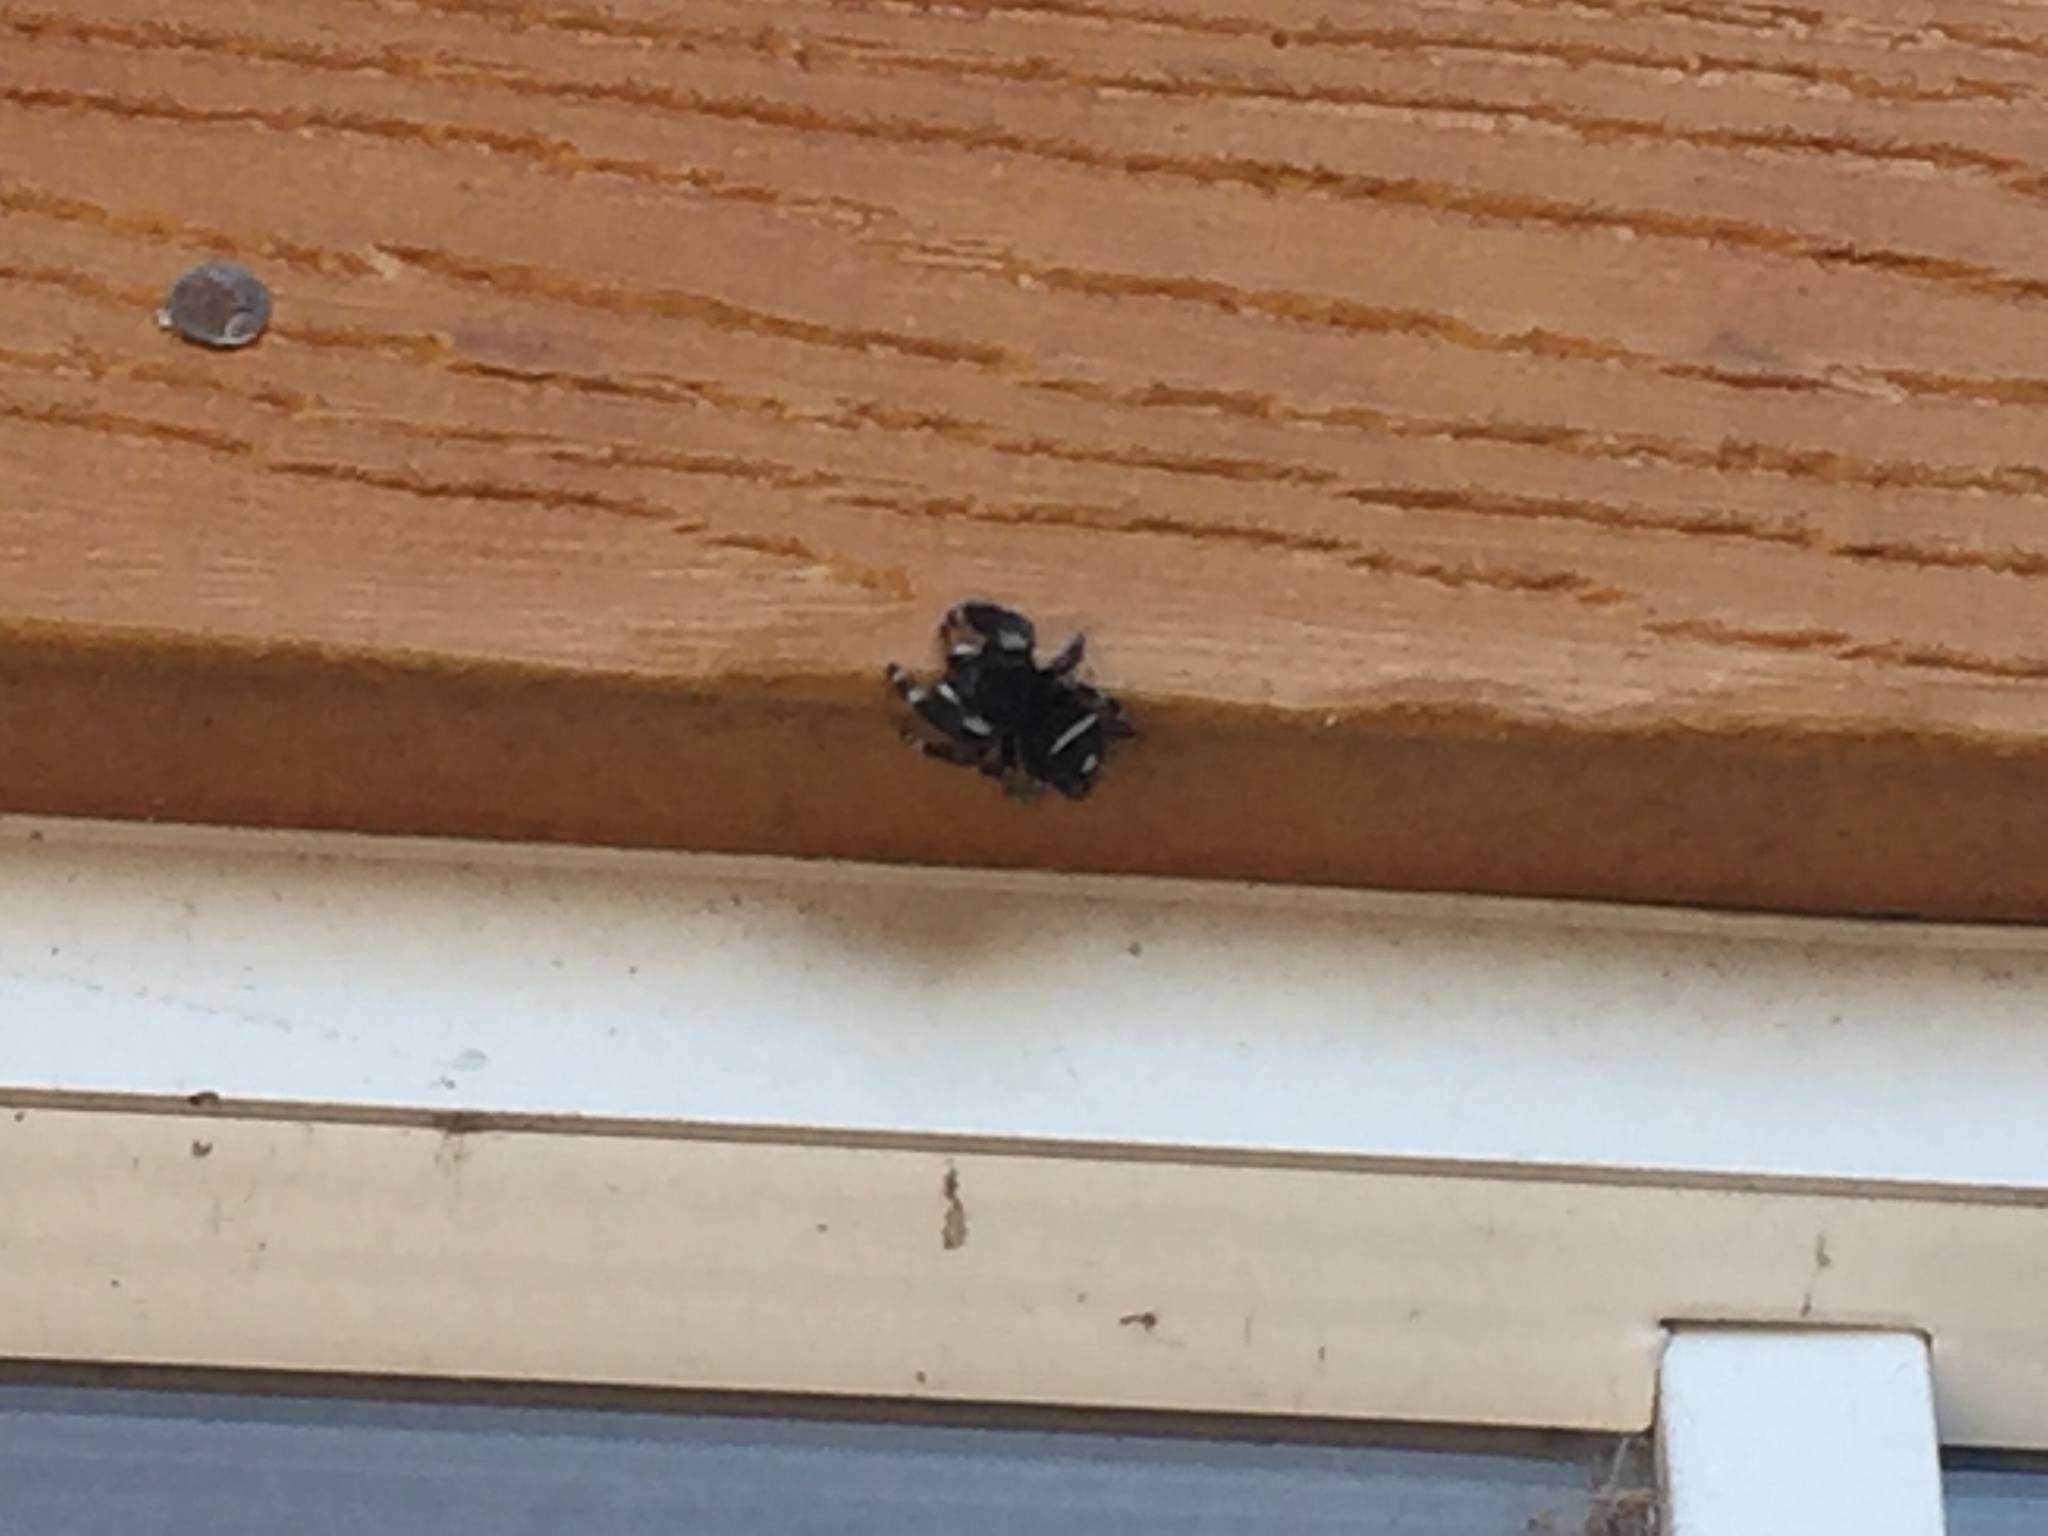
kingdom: Animalia
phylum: Arthropoda
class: Arachnida
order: Araneae
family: Salticidae
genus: Phidippus
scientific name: Phidippus audax
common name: Bold jumper
